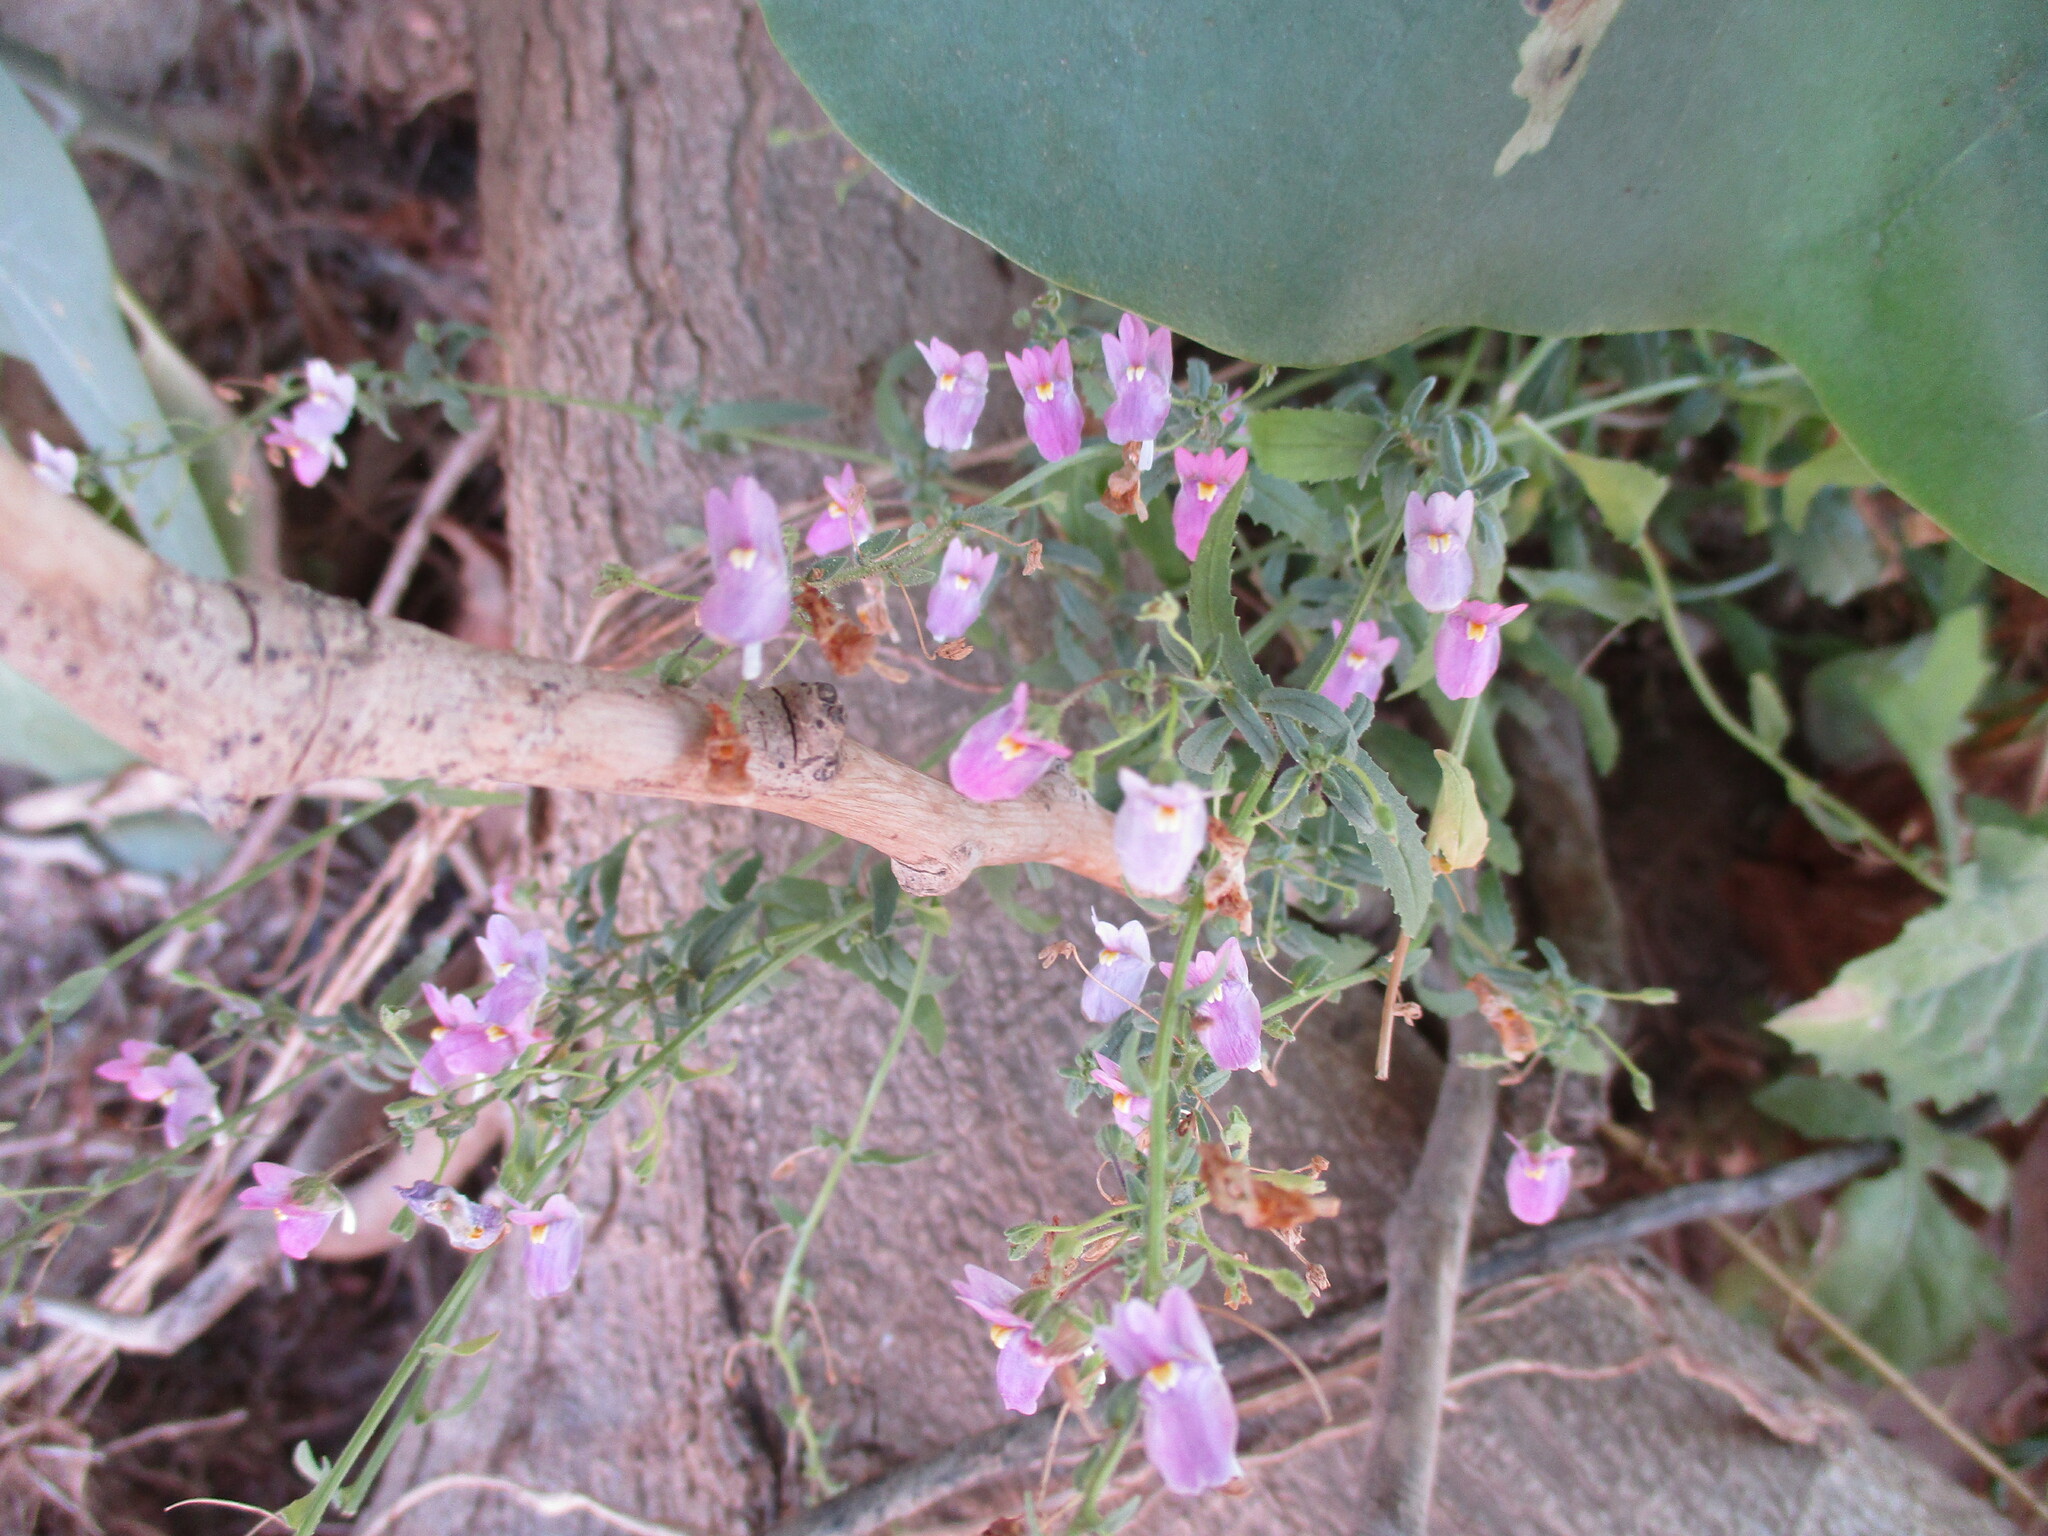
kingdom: Plantae
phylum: Tracheophyta
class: Magnoliopsida
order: Lamiales
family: Scrophulariaceae
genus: Nemesia
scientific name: Nemesia lilacina
